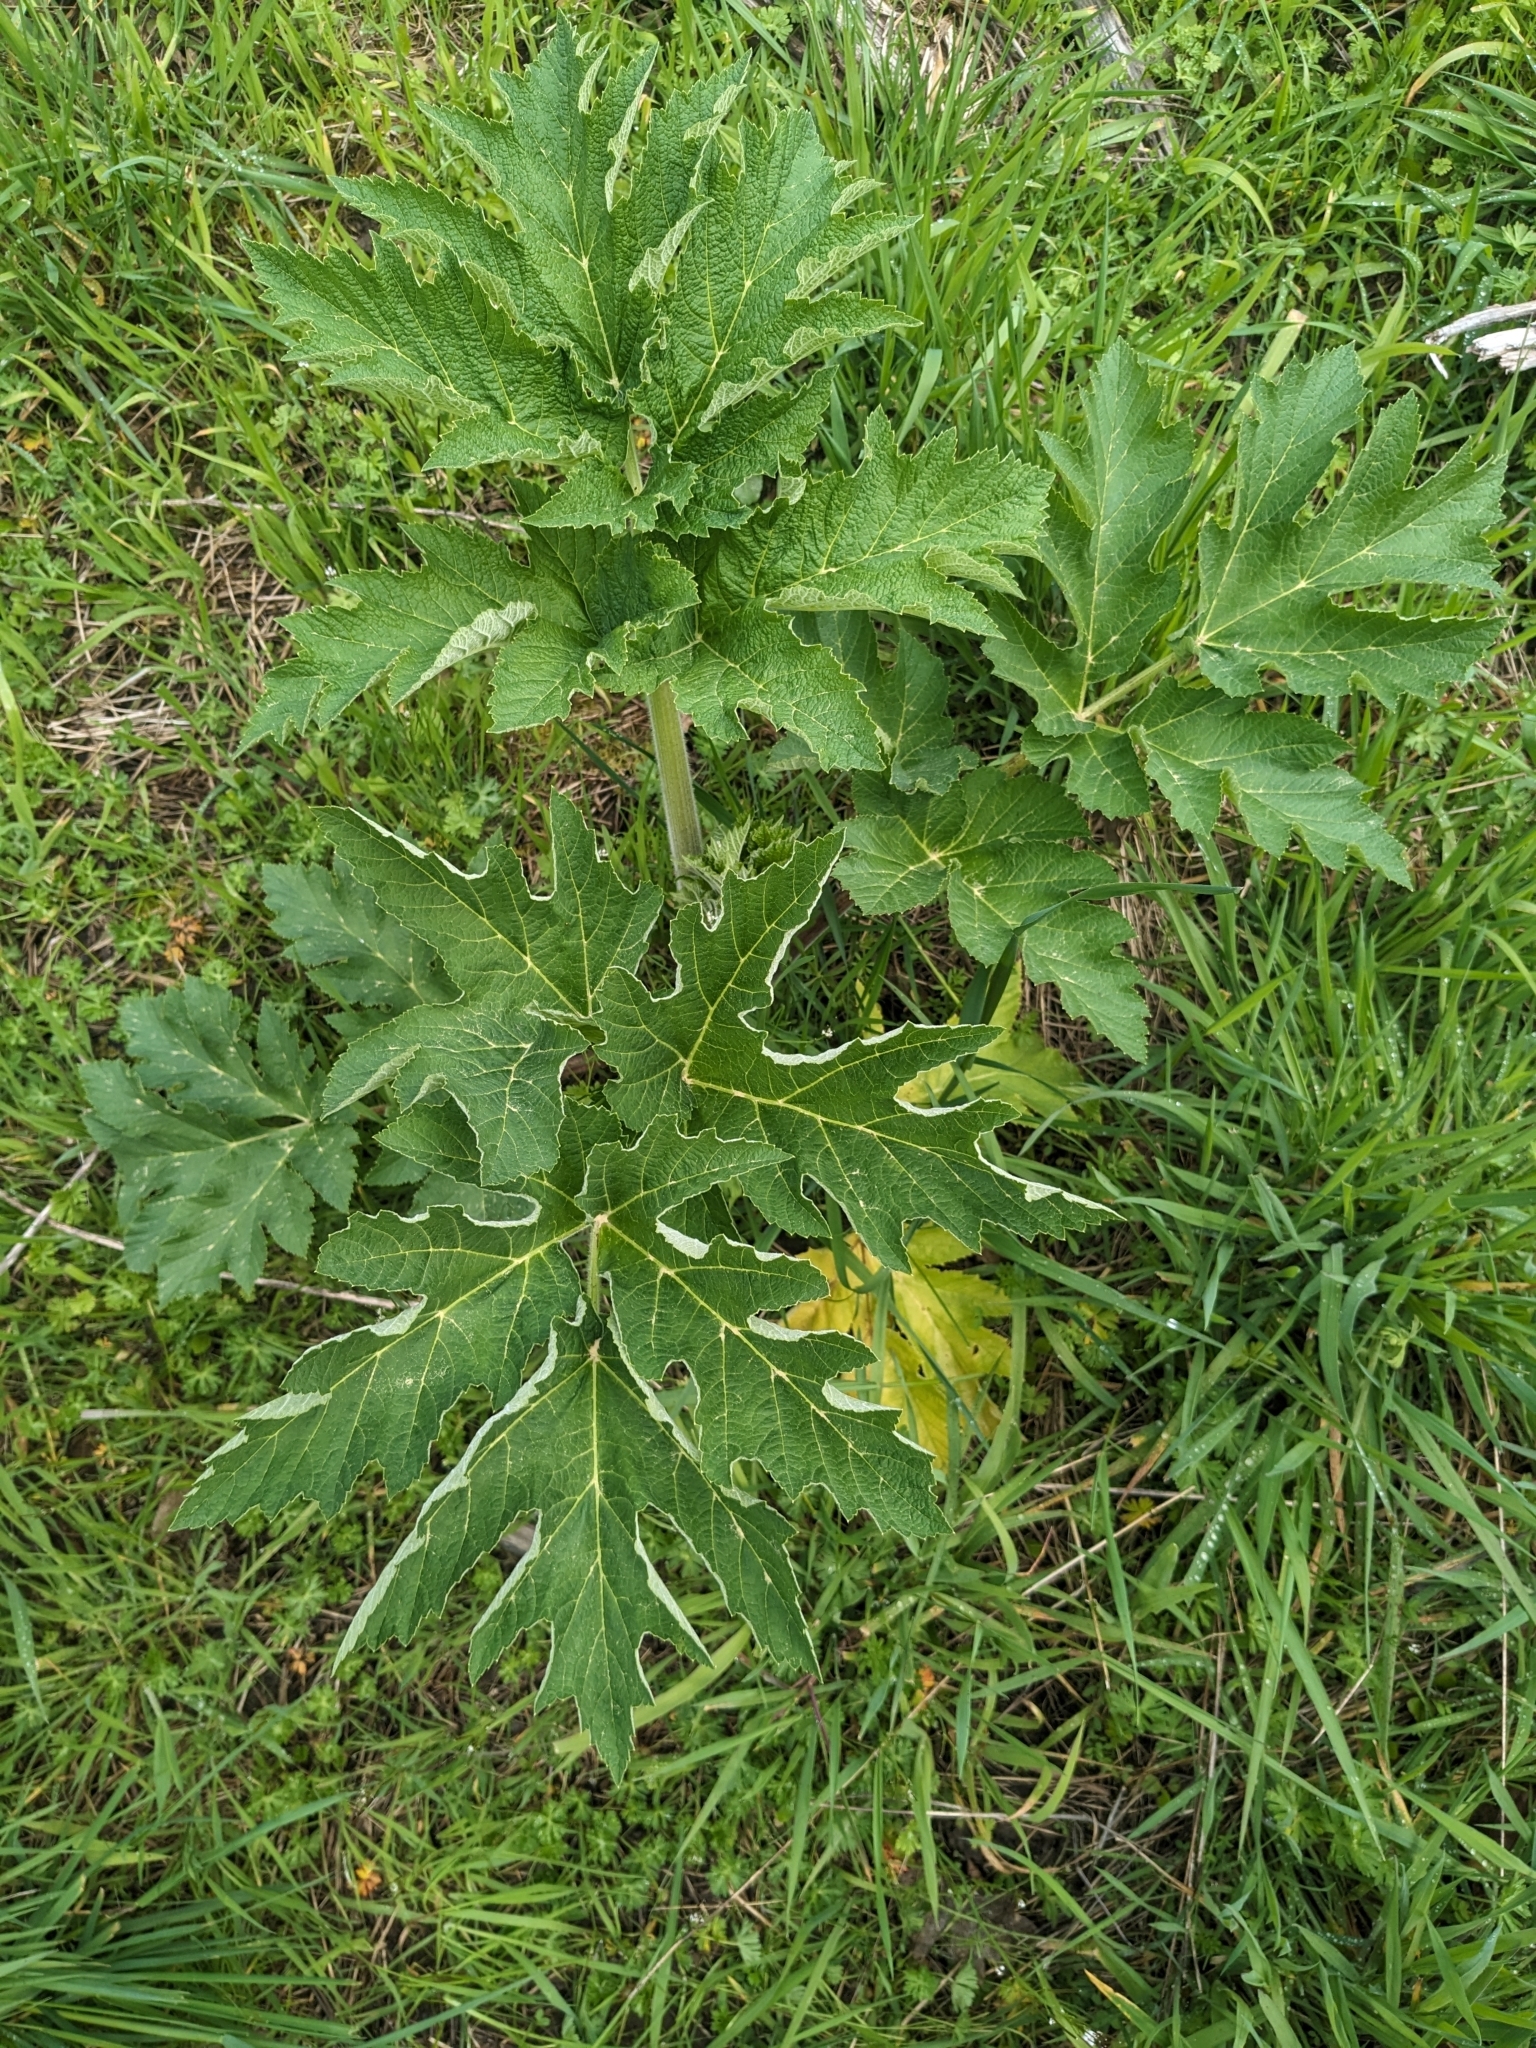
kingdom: Plantae
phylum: Tracheophyta
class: Magnoliopsida
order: Apiales
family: Apiaceae
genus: Heracleum
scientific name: Heracleum maximum
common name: American cow parsnip
